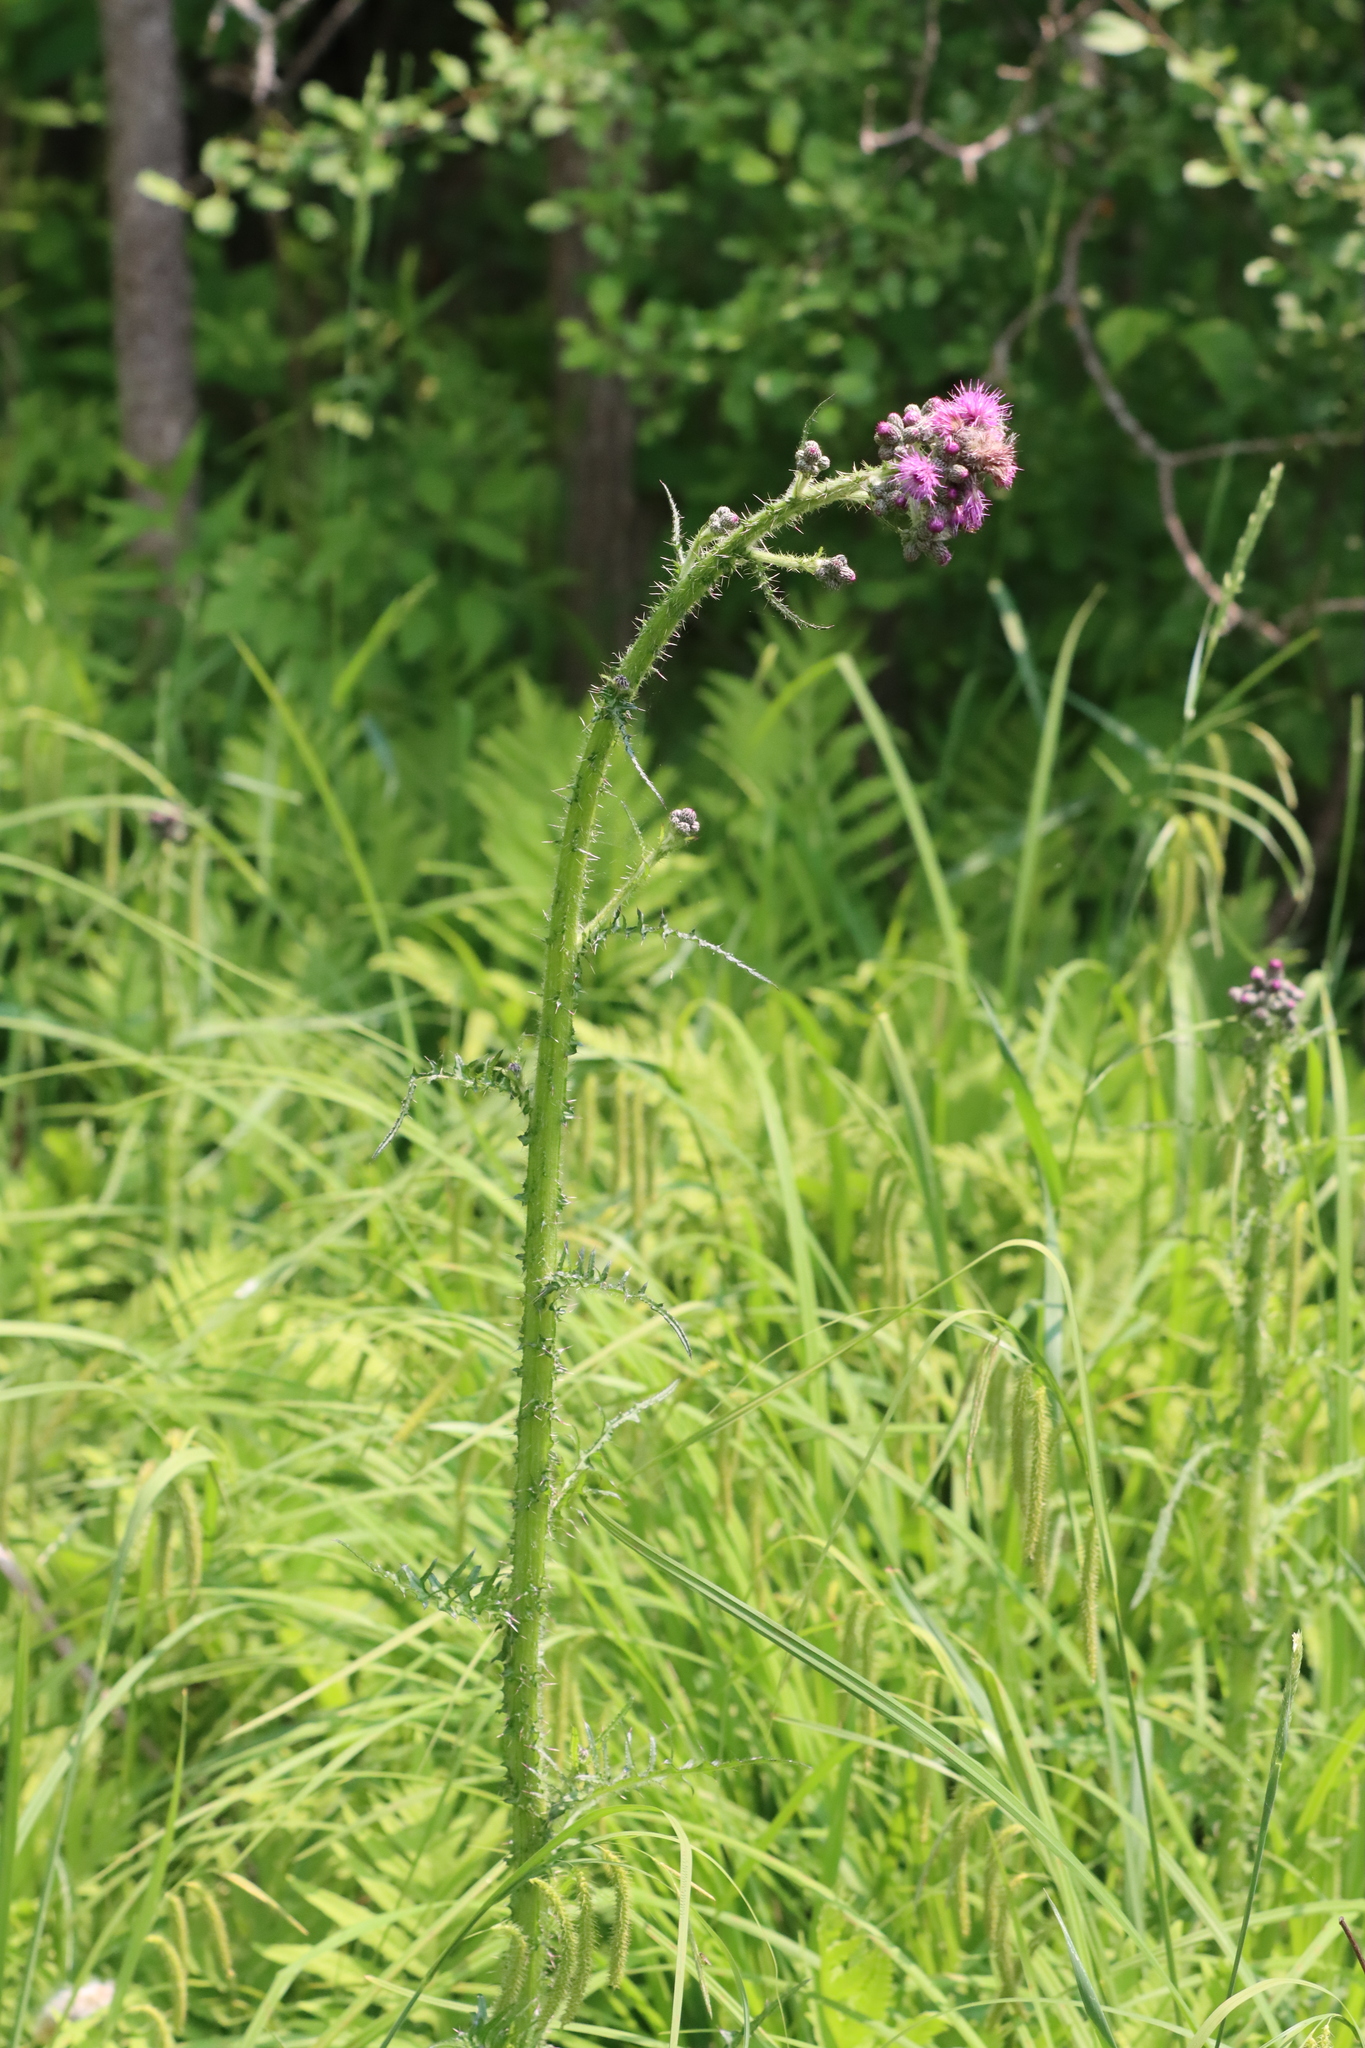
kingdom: Plantae
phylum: Tracheophyta
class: Magnoliopsida
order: Asterales
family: Asteraceae
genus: Cirsium
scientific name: Cirsium palustre
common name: Marsh thistle
